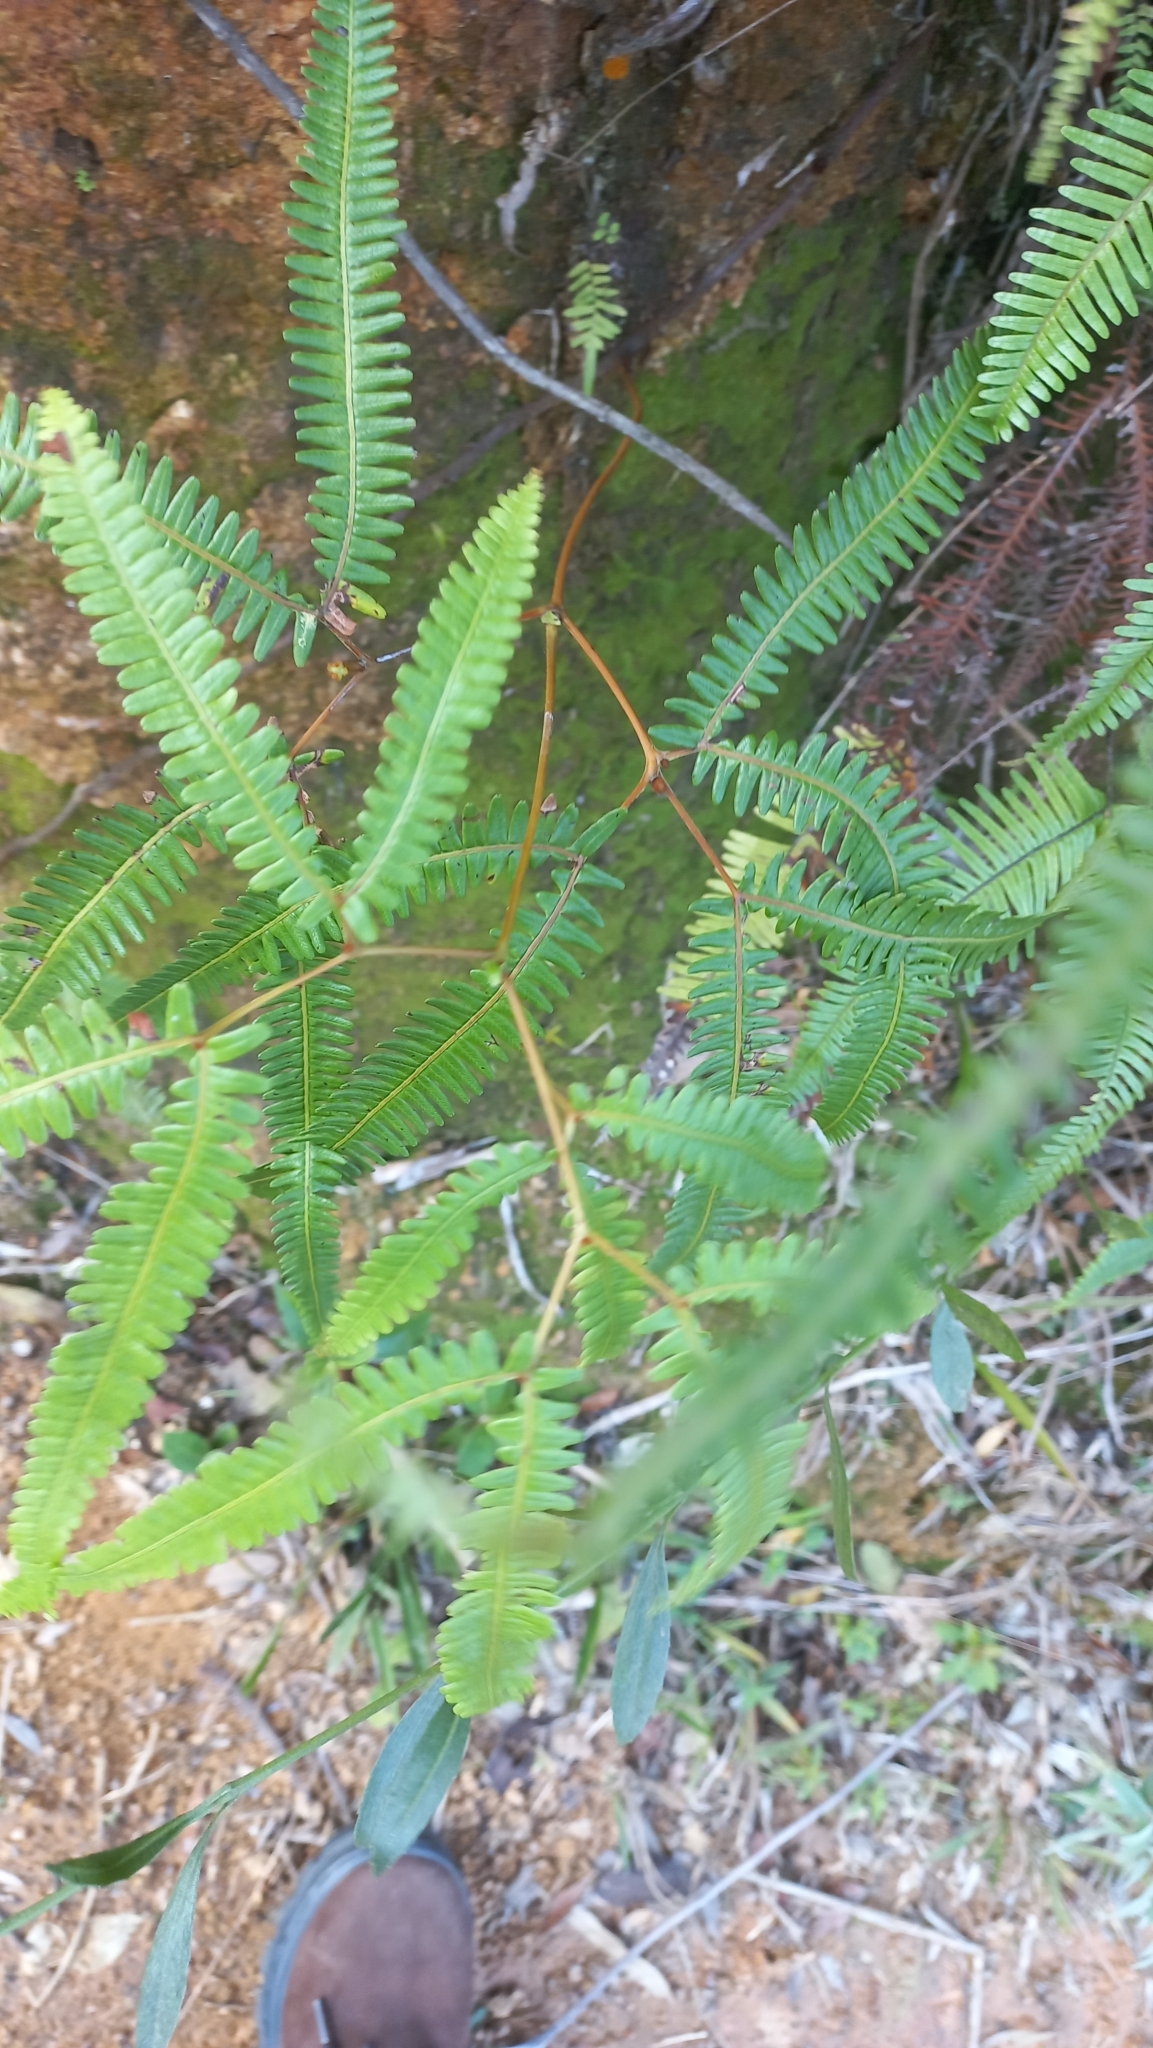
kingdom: Plantae
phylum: Tracheophyta
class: Polypodiopsida
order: Gleicheniales
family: Gleicheniaceae
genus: Gleichenella
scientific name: Gleichenella pectinata
